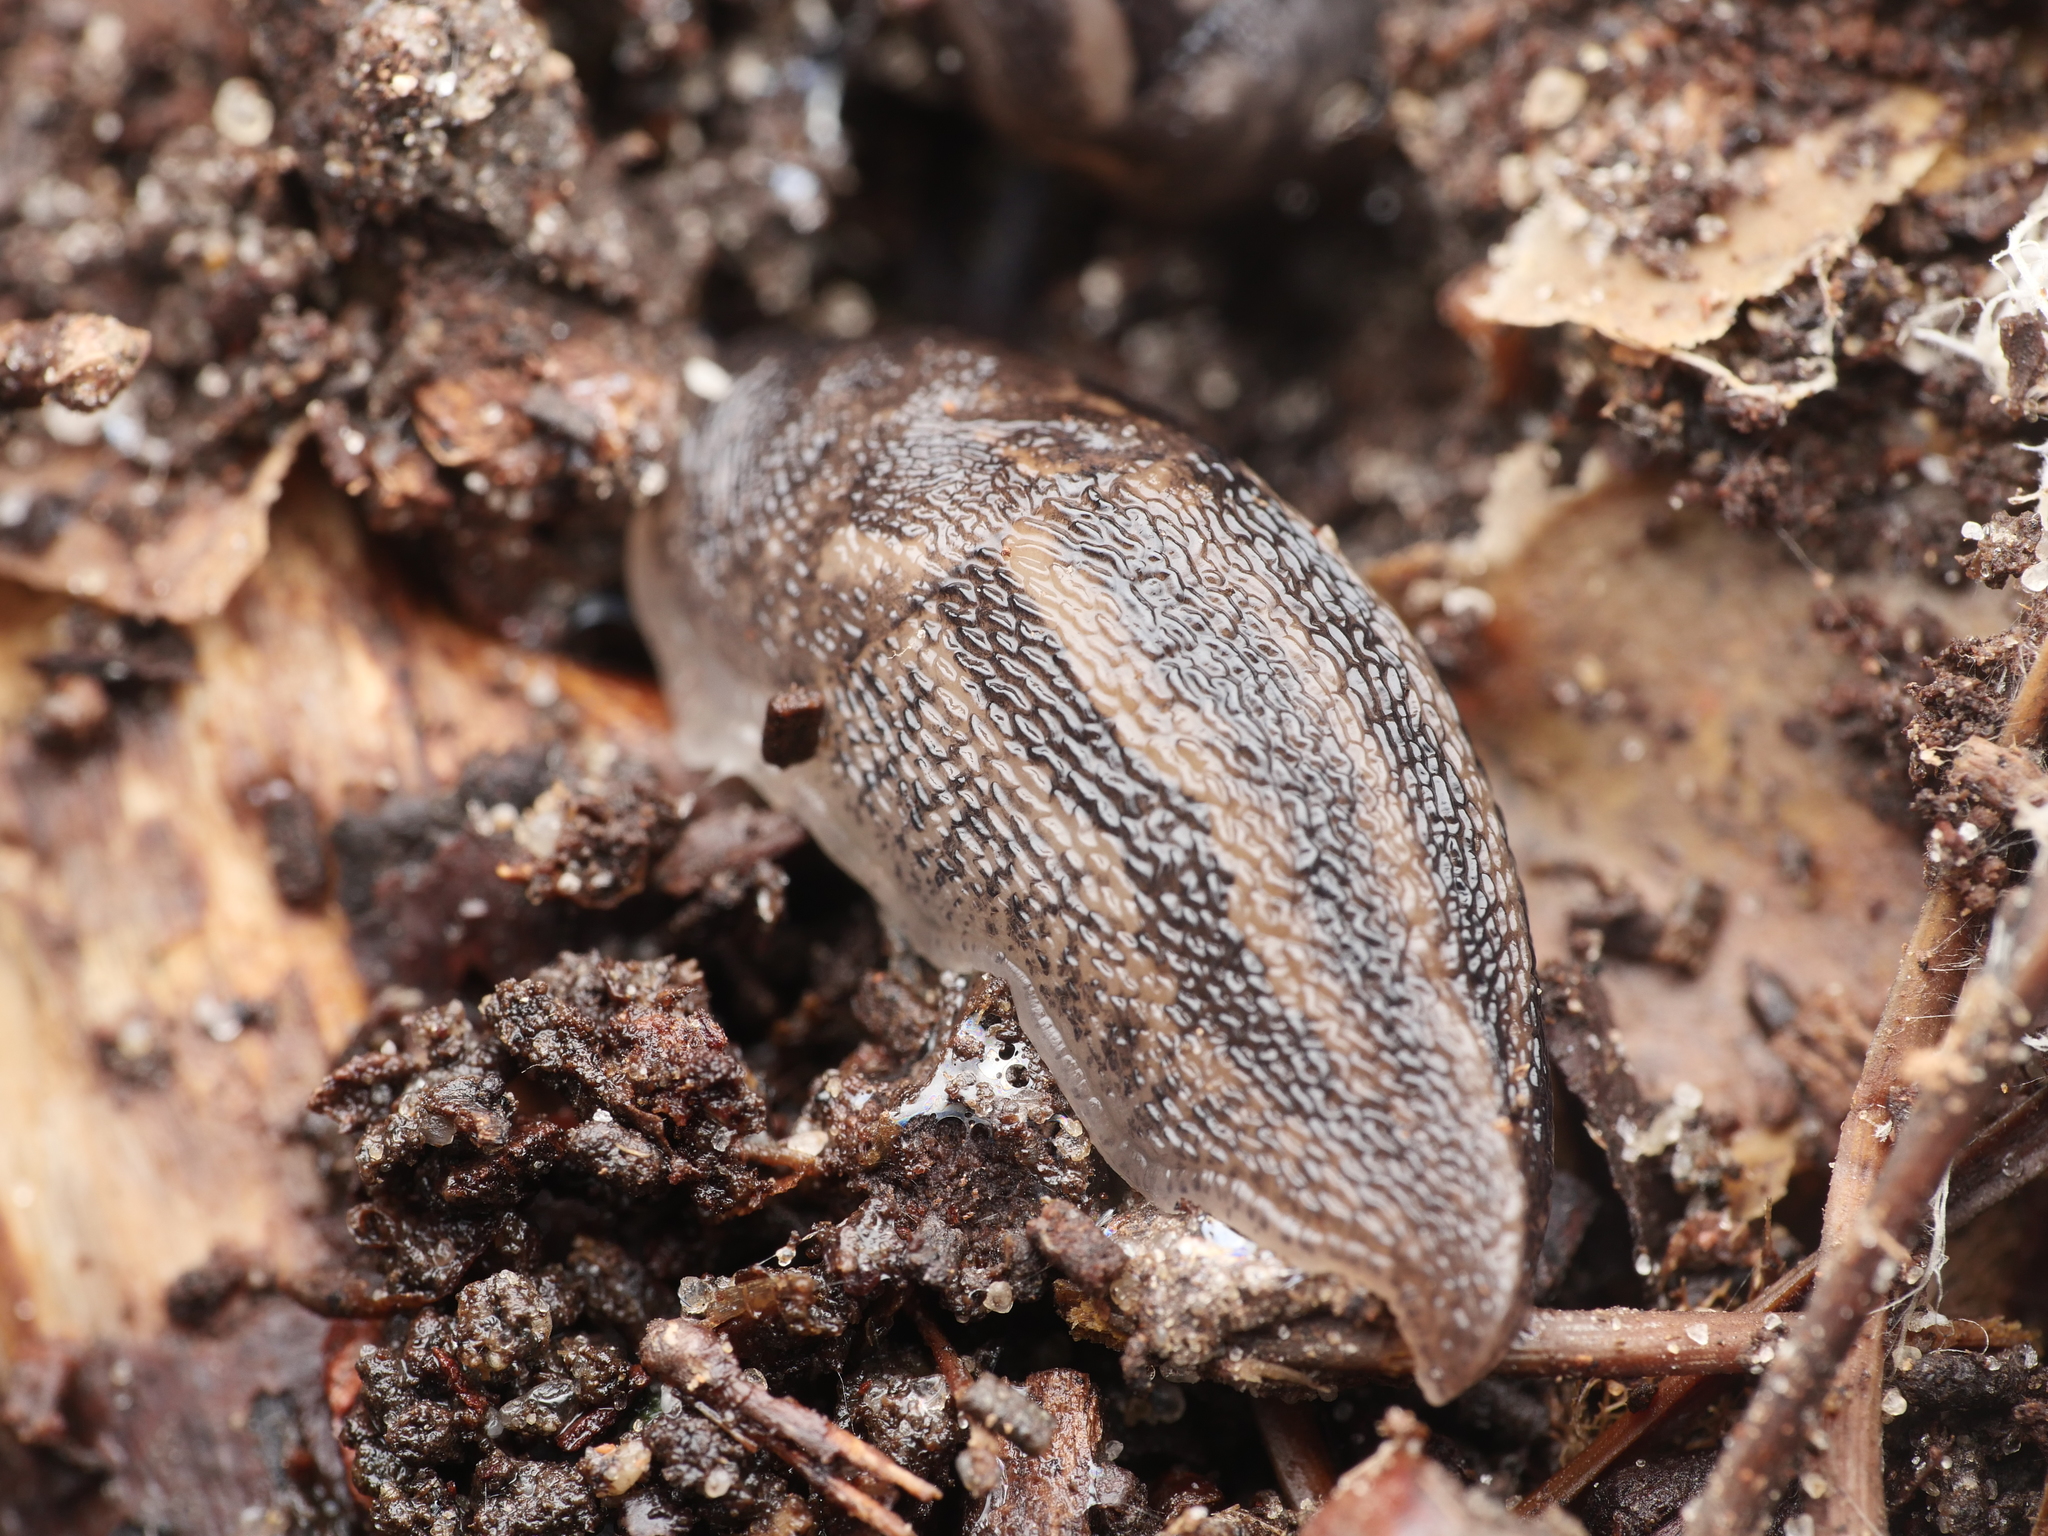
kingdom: Animalia
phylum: Mollusca
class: Gastropoda
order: Stylommatophora
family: Limacidae
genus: Limax
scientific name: Limax maximus
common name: Great grey slug
